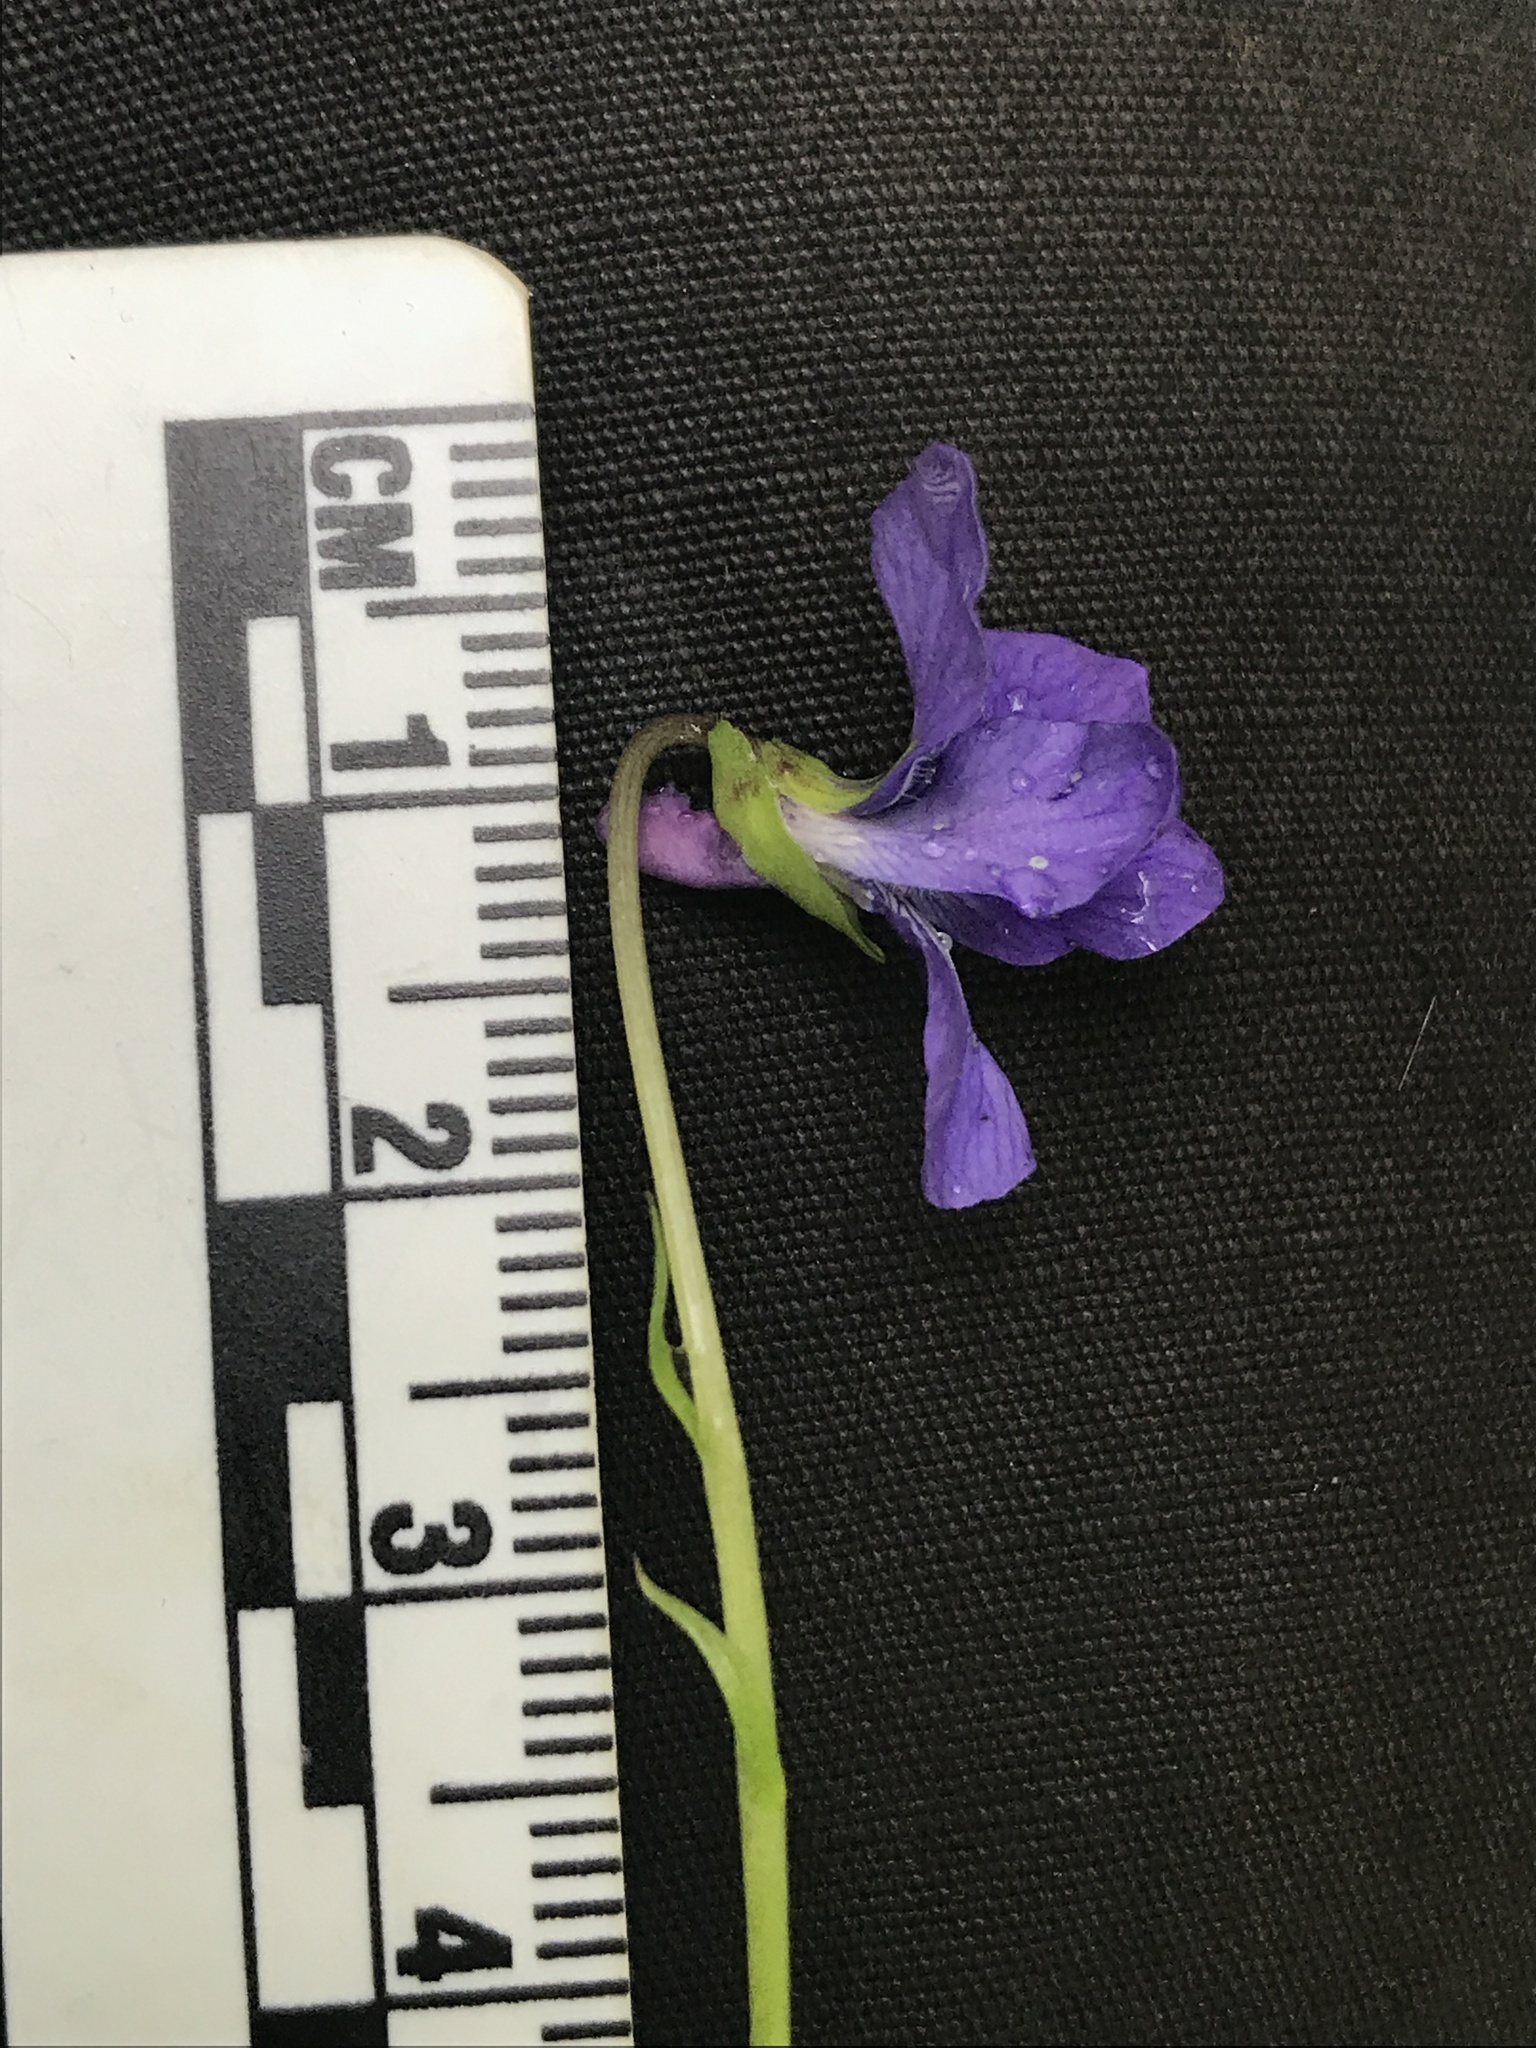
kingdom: Plantae
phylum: Tracheophyta
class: Magnoliopsida
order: Malpighiales
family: Violaceae
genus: Viola
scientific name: Viola adunca
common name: Sand violet
